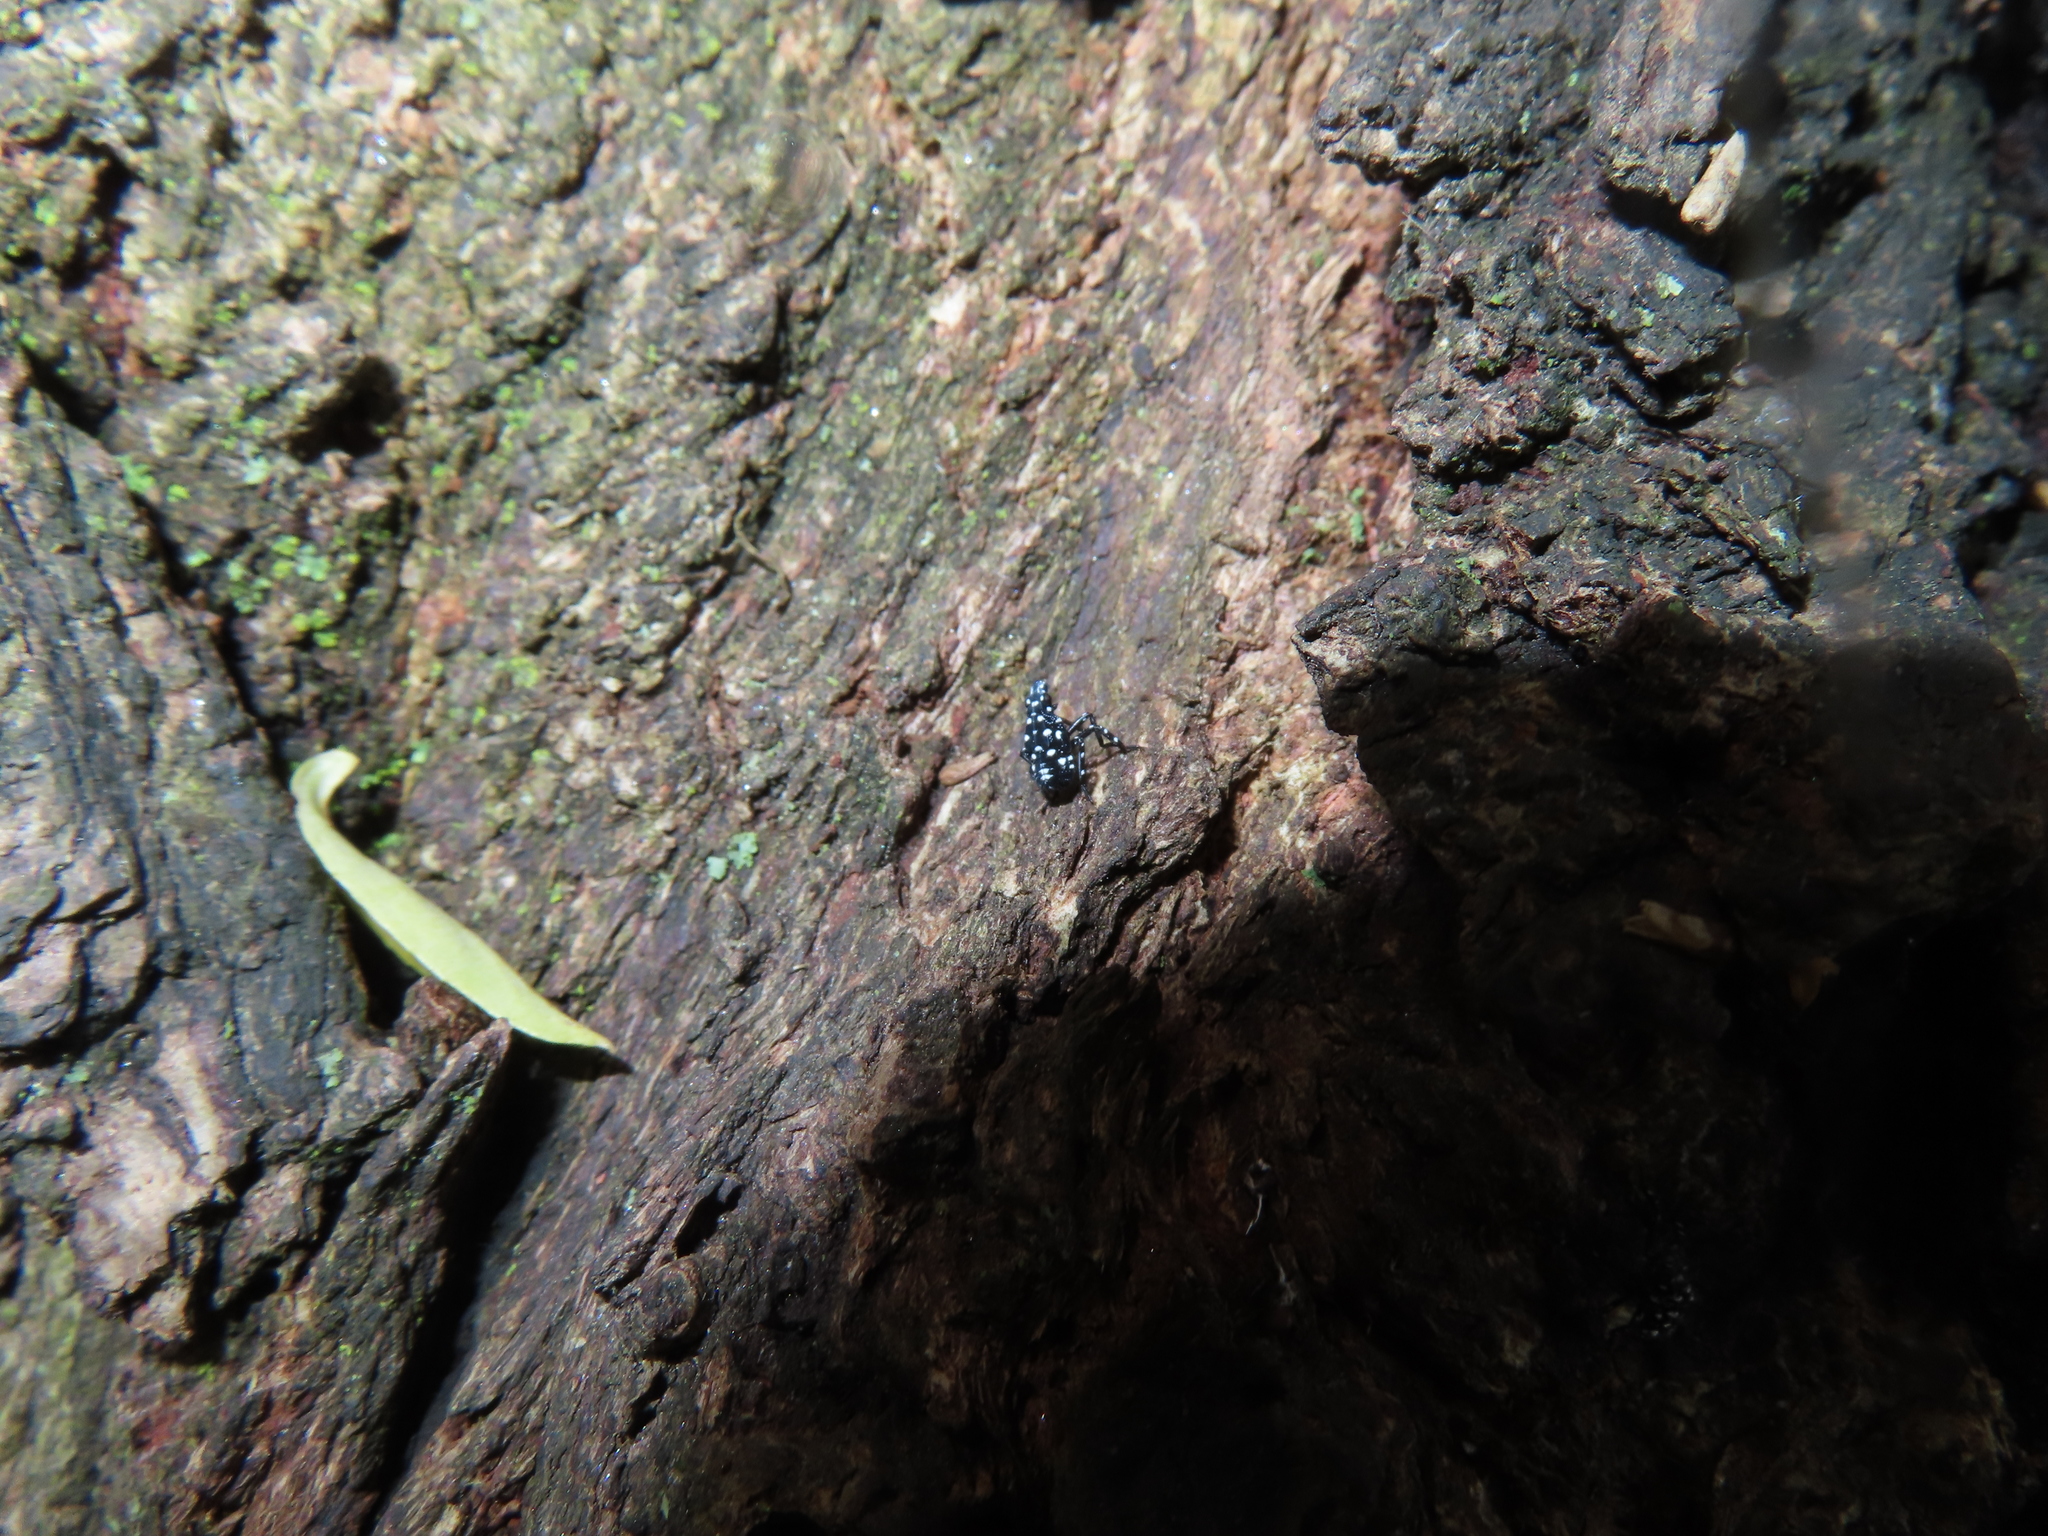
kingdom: Animalia
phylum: Arthropoda
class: Insecta
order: Hemiptera
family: Fulgoridae
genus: Lycorma
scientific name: Lycorma delicatula
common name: Spotted lanternfly
